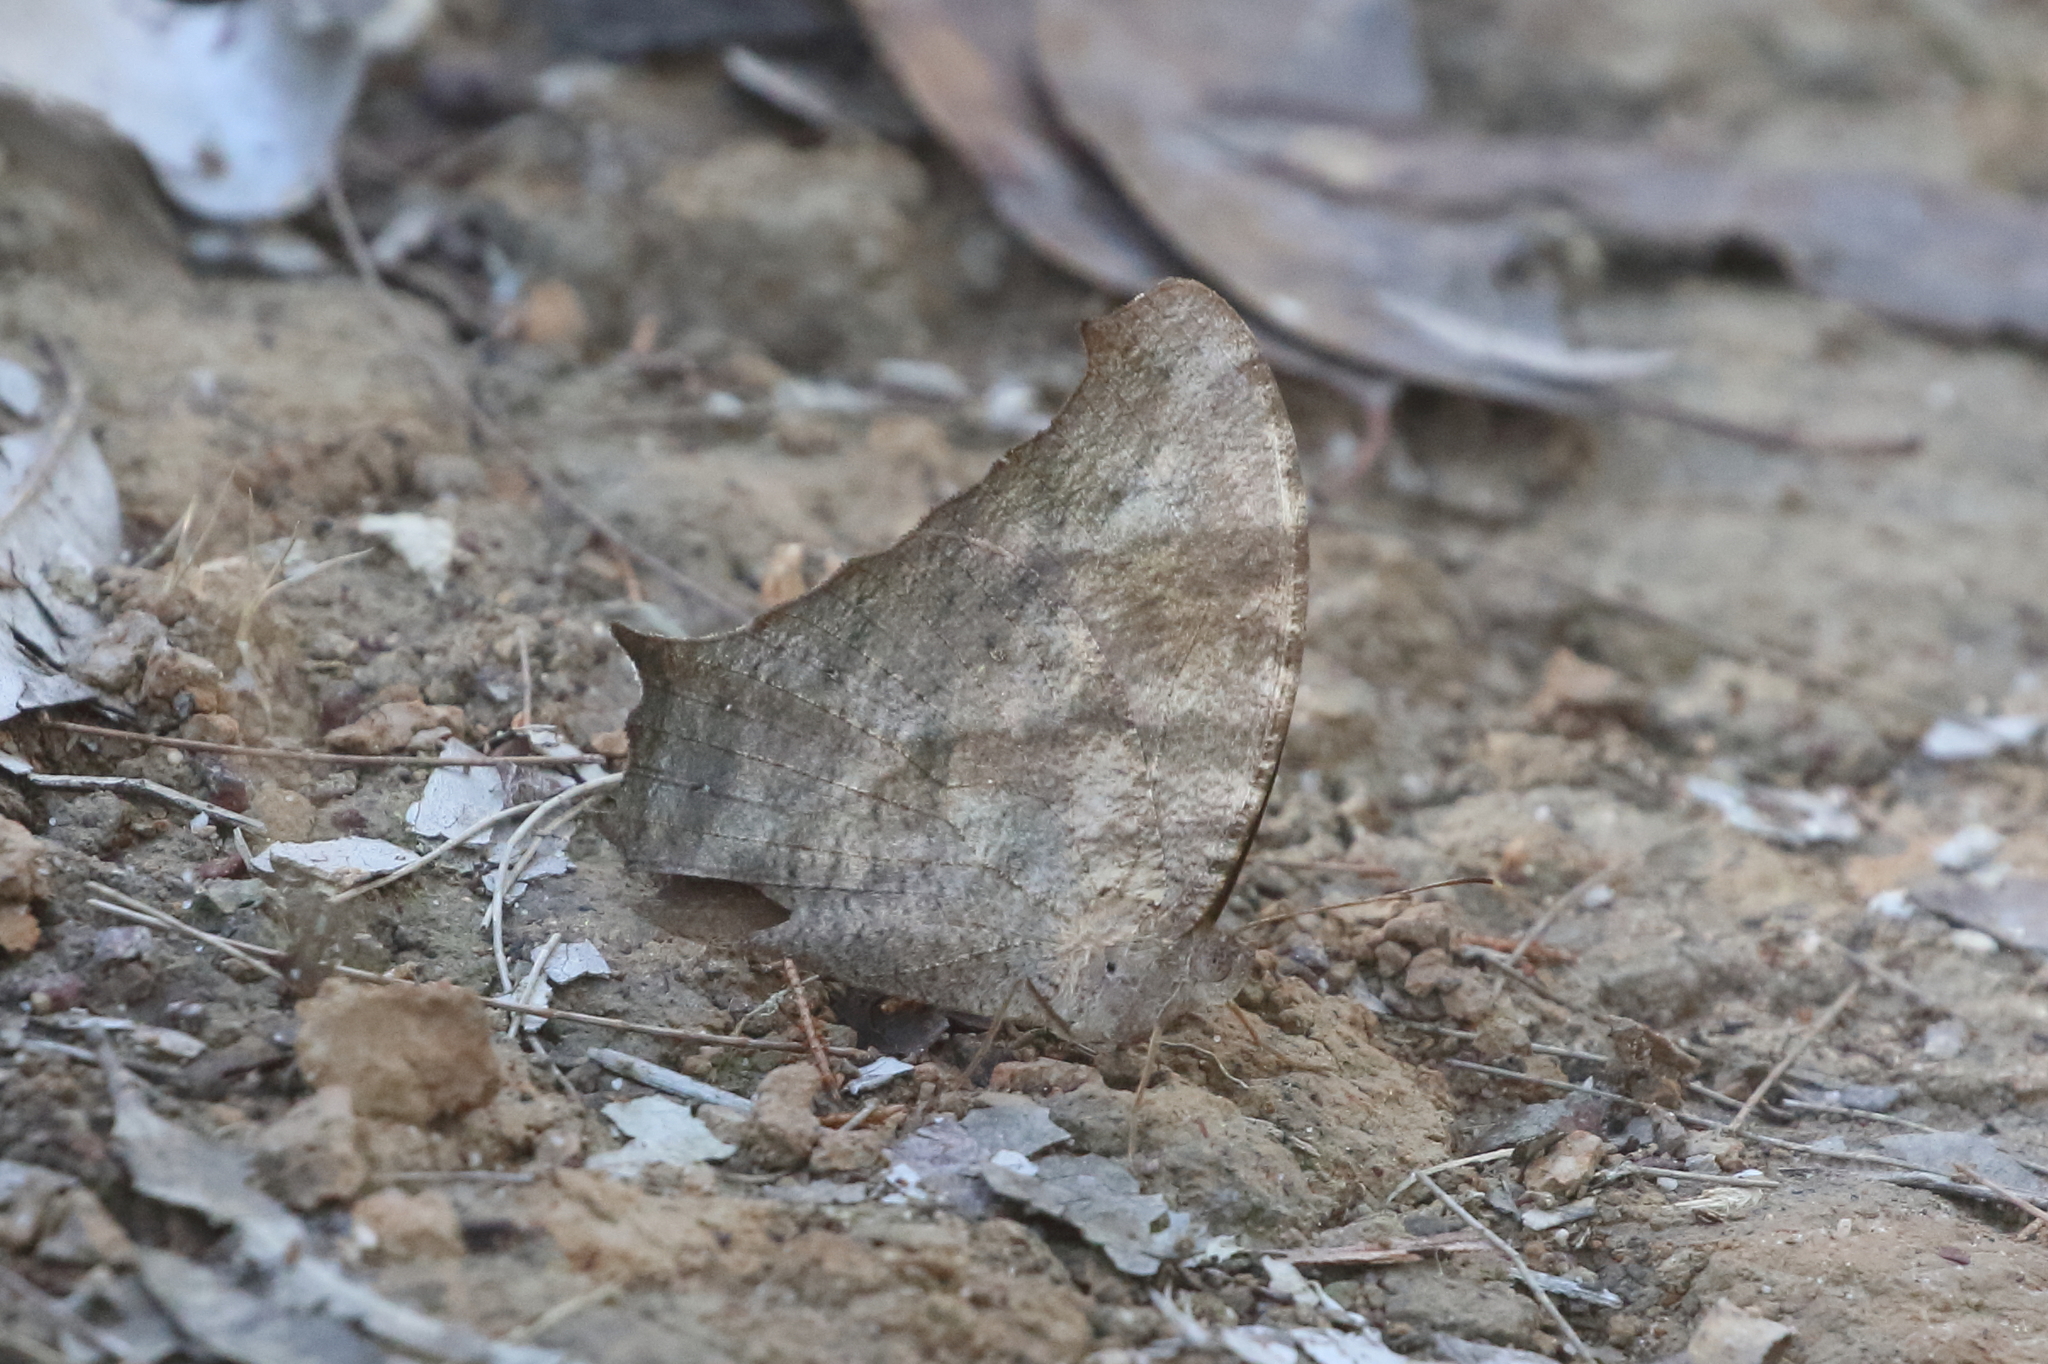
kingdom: Animalia
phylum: Arthropoda
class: Insecta
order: Lepidoptera
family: Nymphalidae
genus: Melanitis
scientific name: Melanitis leda
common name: Twilight brown
